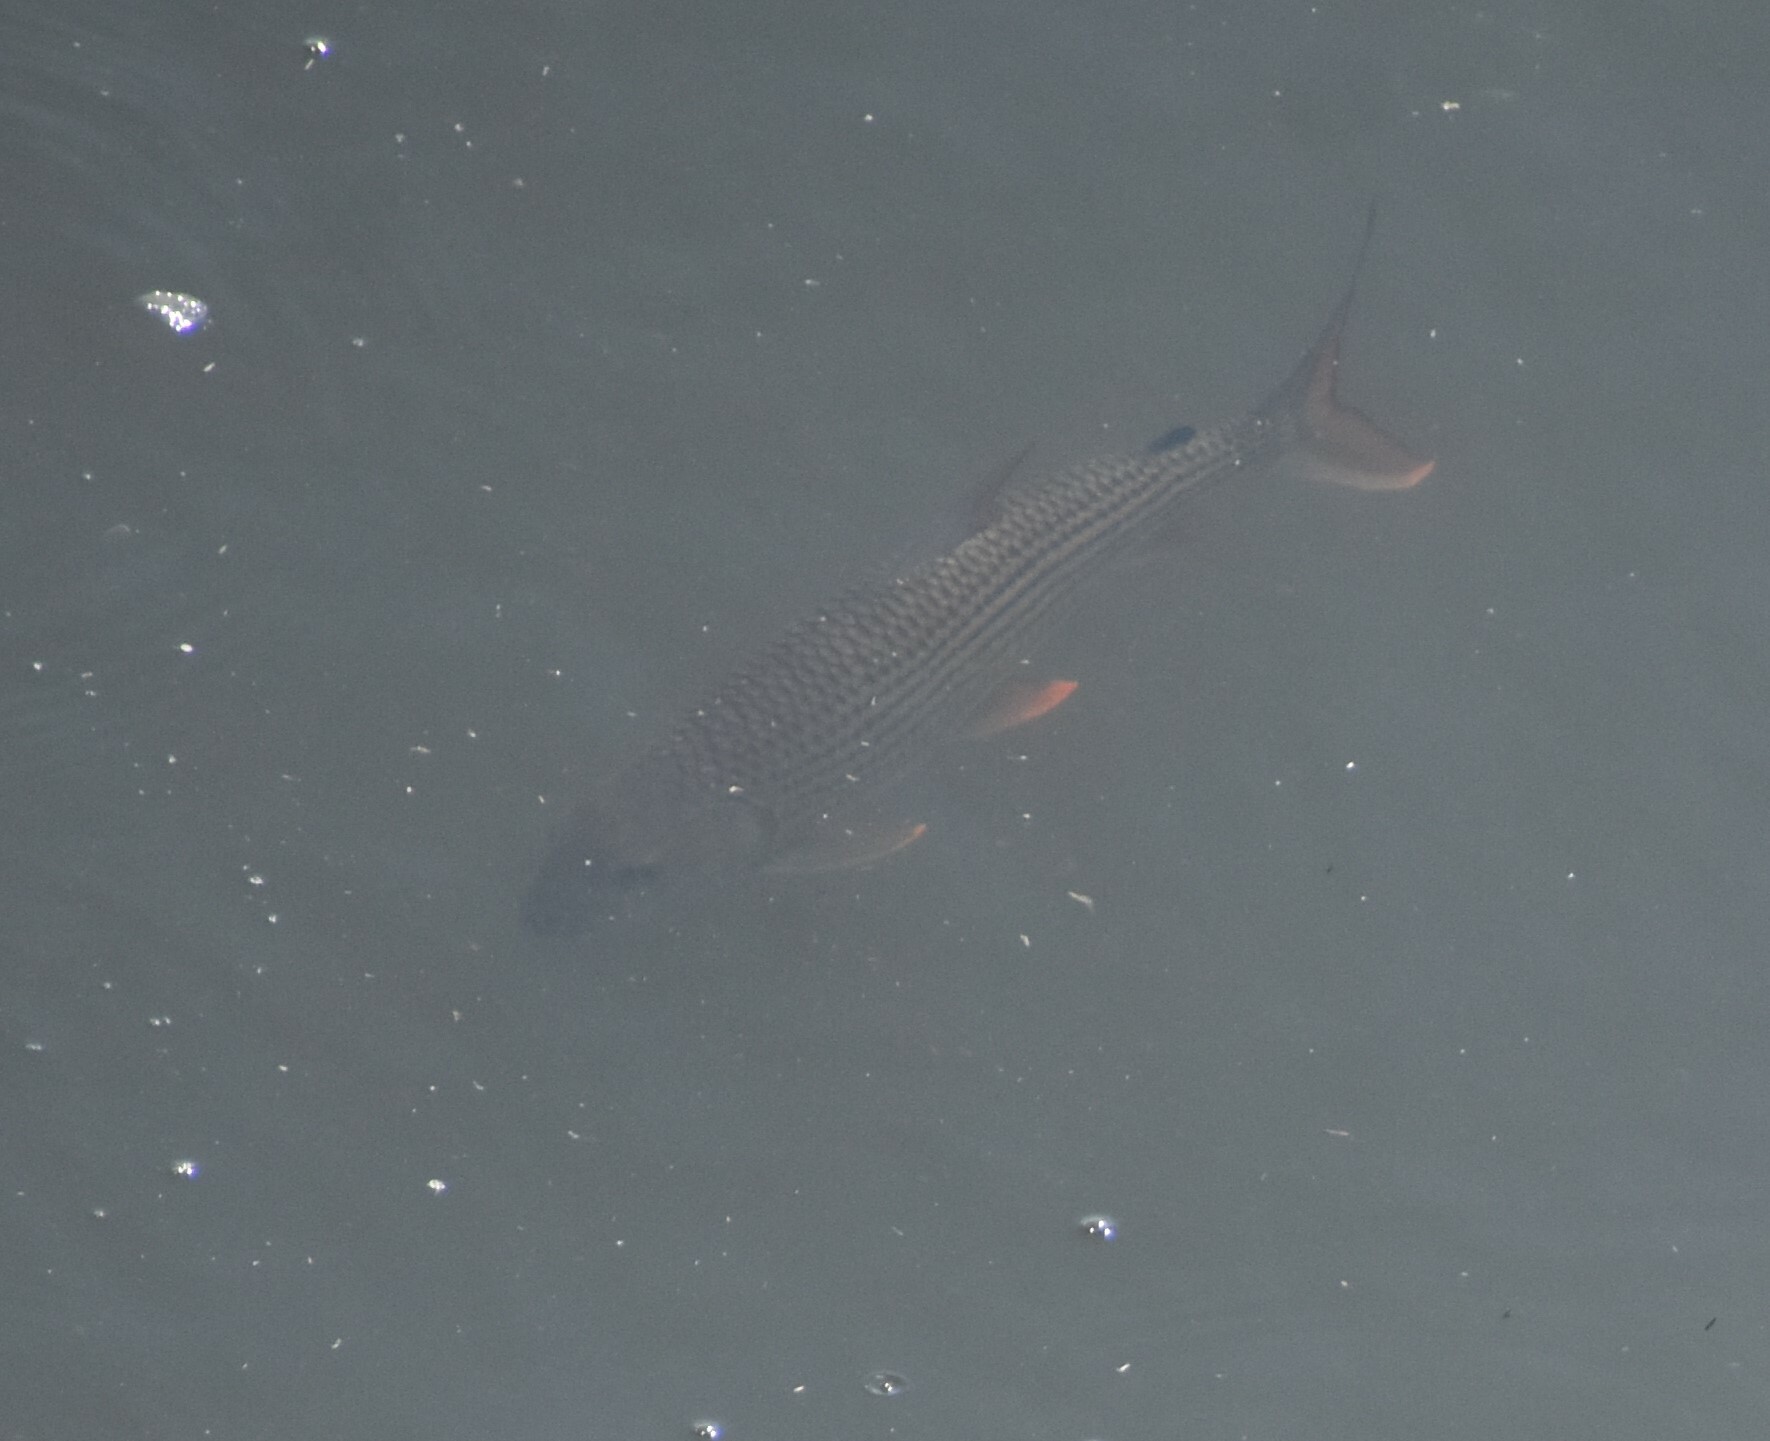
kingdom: Animalia
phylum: Chordata
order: Characiformes
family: Alestidae
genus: Hydrocynus
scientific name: Hydrocynus vittatus
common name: Tigerfish
